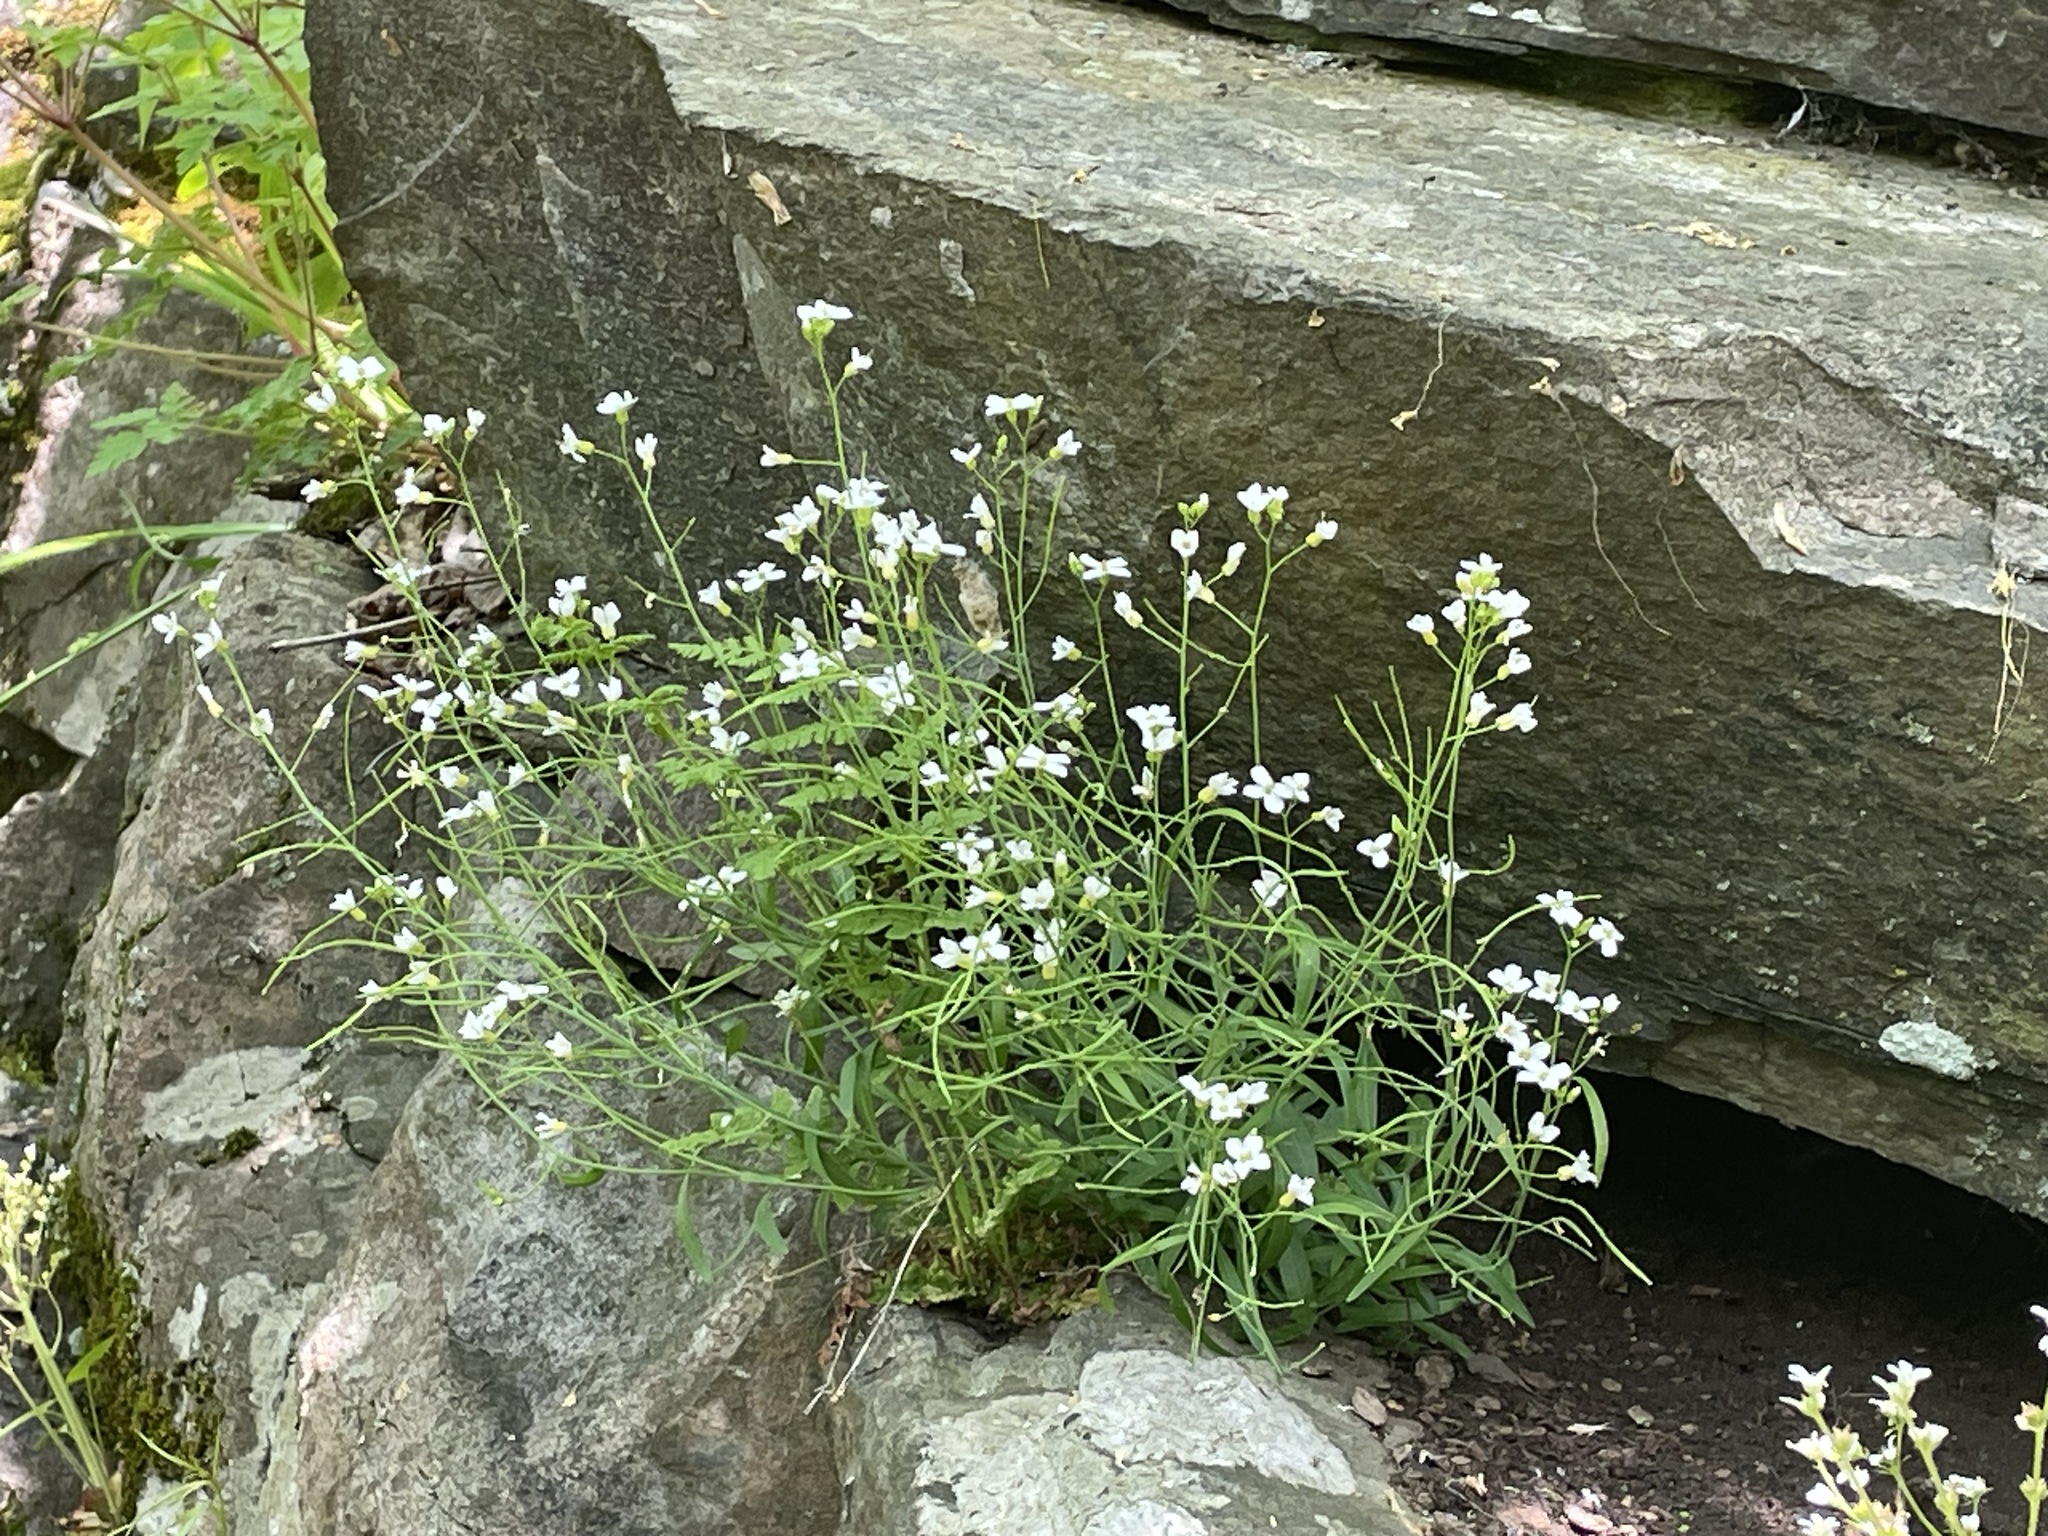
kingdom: Plantae
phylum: Tracheophyta
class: Magnoliopsida
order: Brassicales
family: Brassicaceae
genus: Arabidopsis
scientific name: Arabidopsis thaliana
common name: Thale cress
